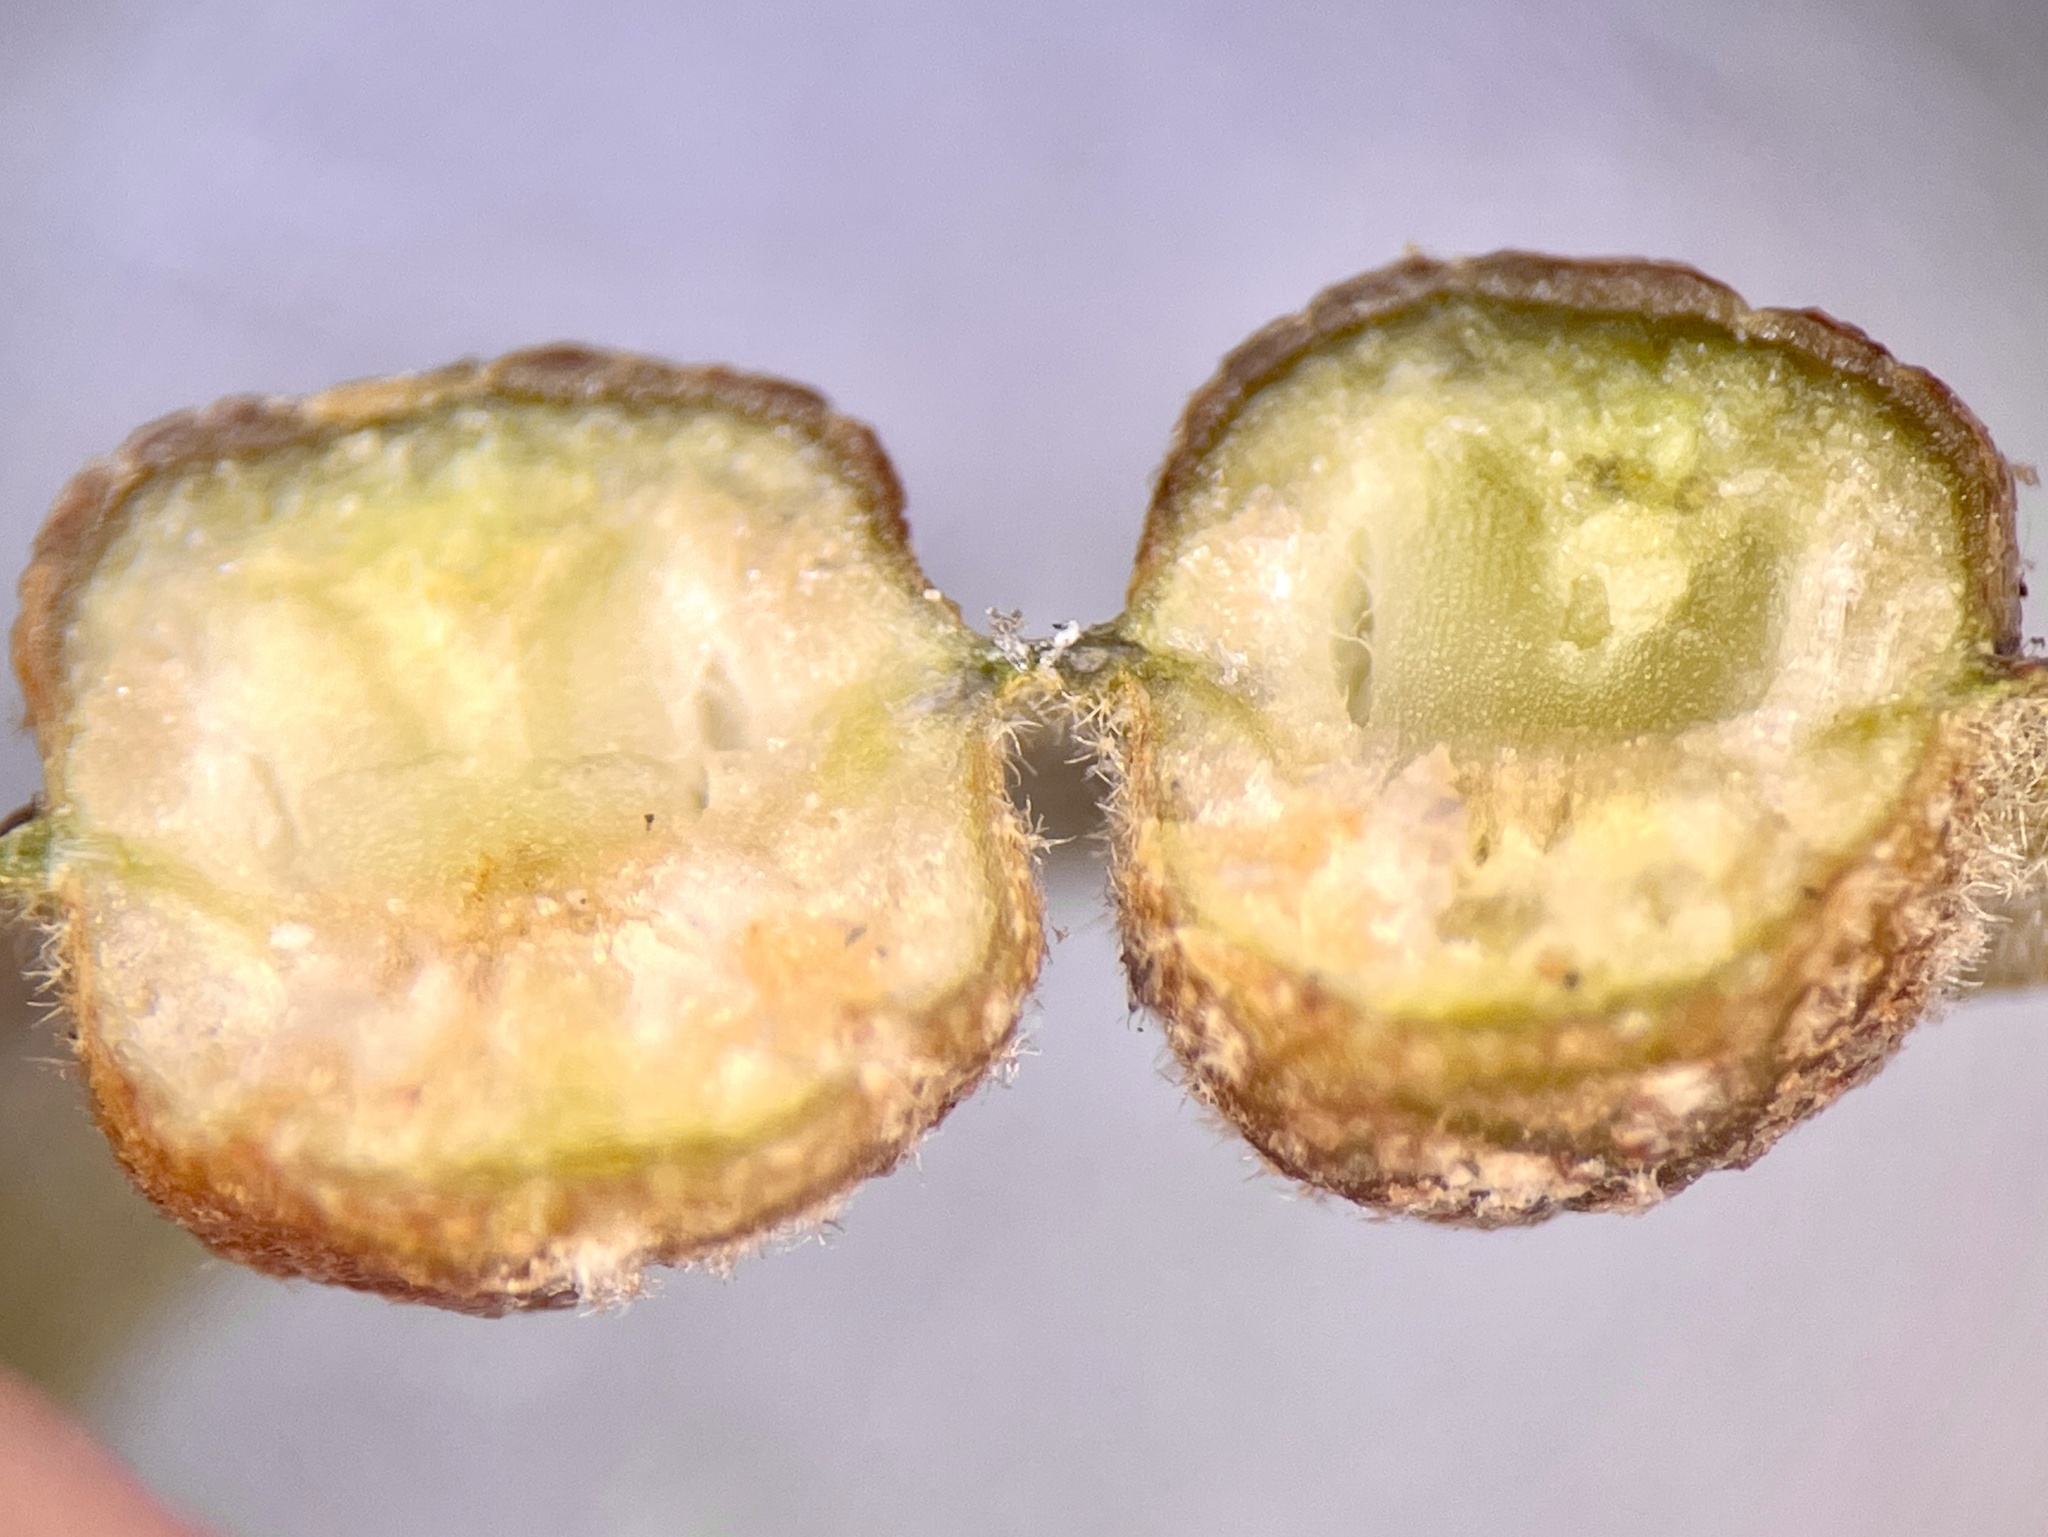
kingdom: Animalia
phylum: Arthropoda
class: Insecta
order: Diptera
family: Cecidomyiidae
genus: Polystepha
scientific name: Polystepha symmetrica
